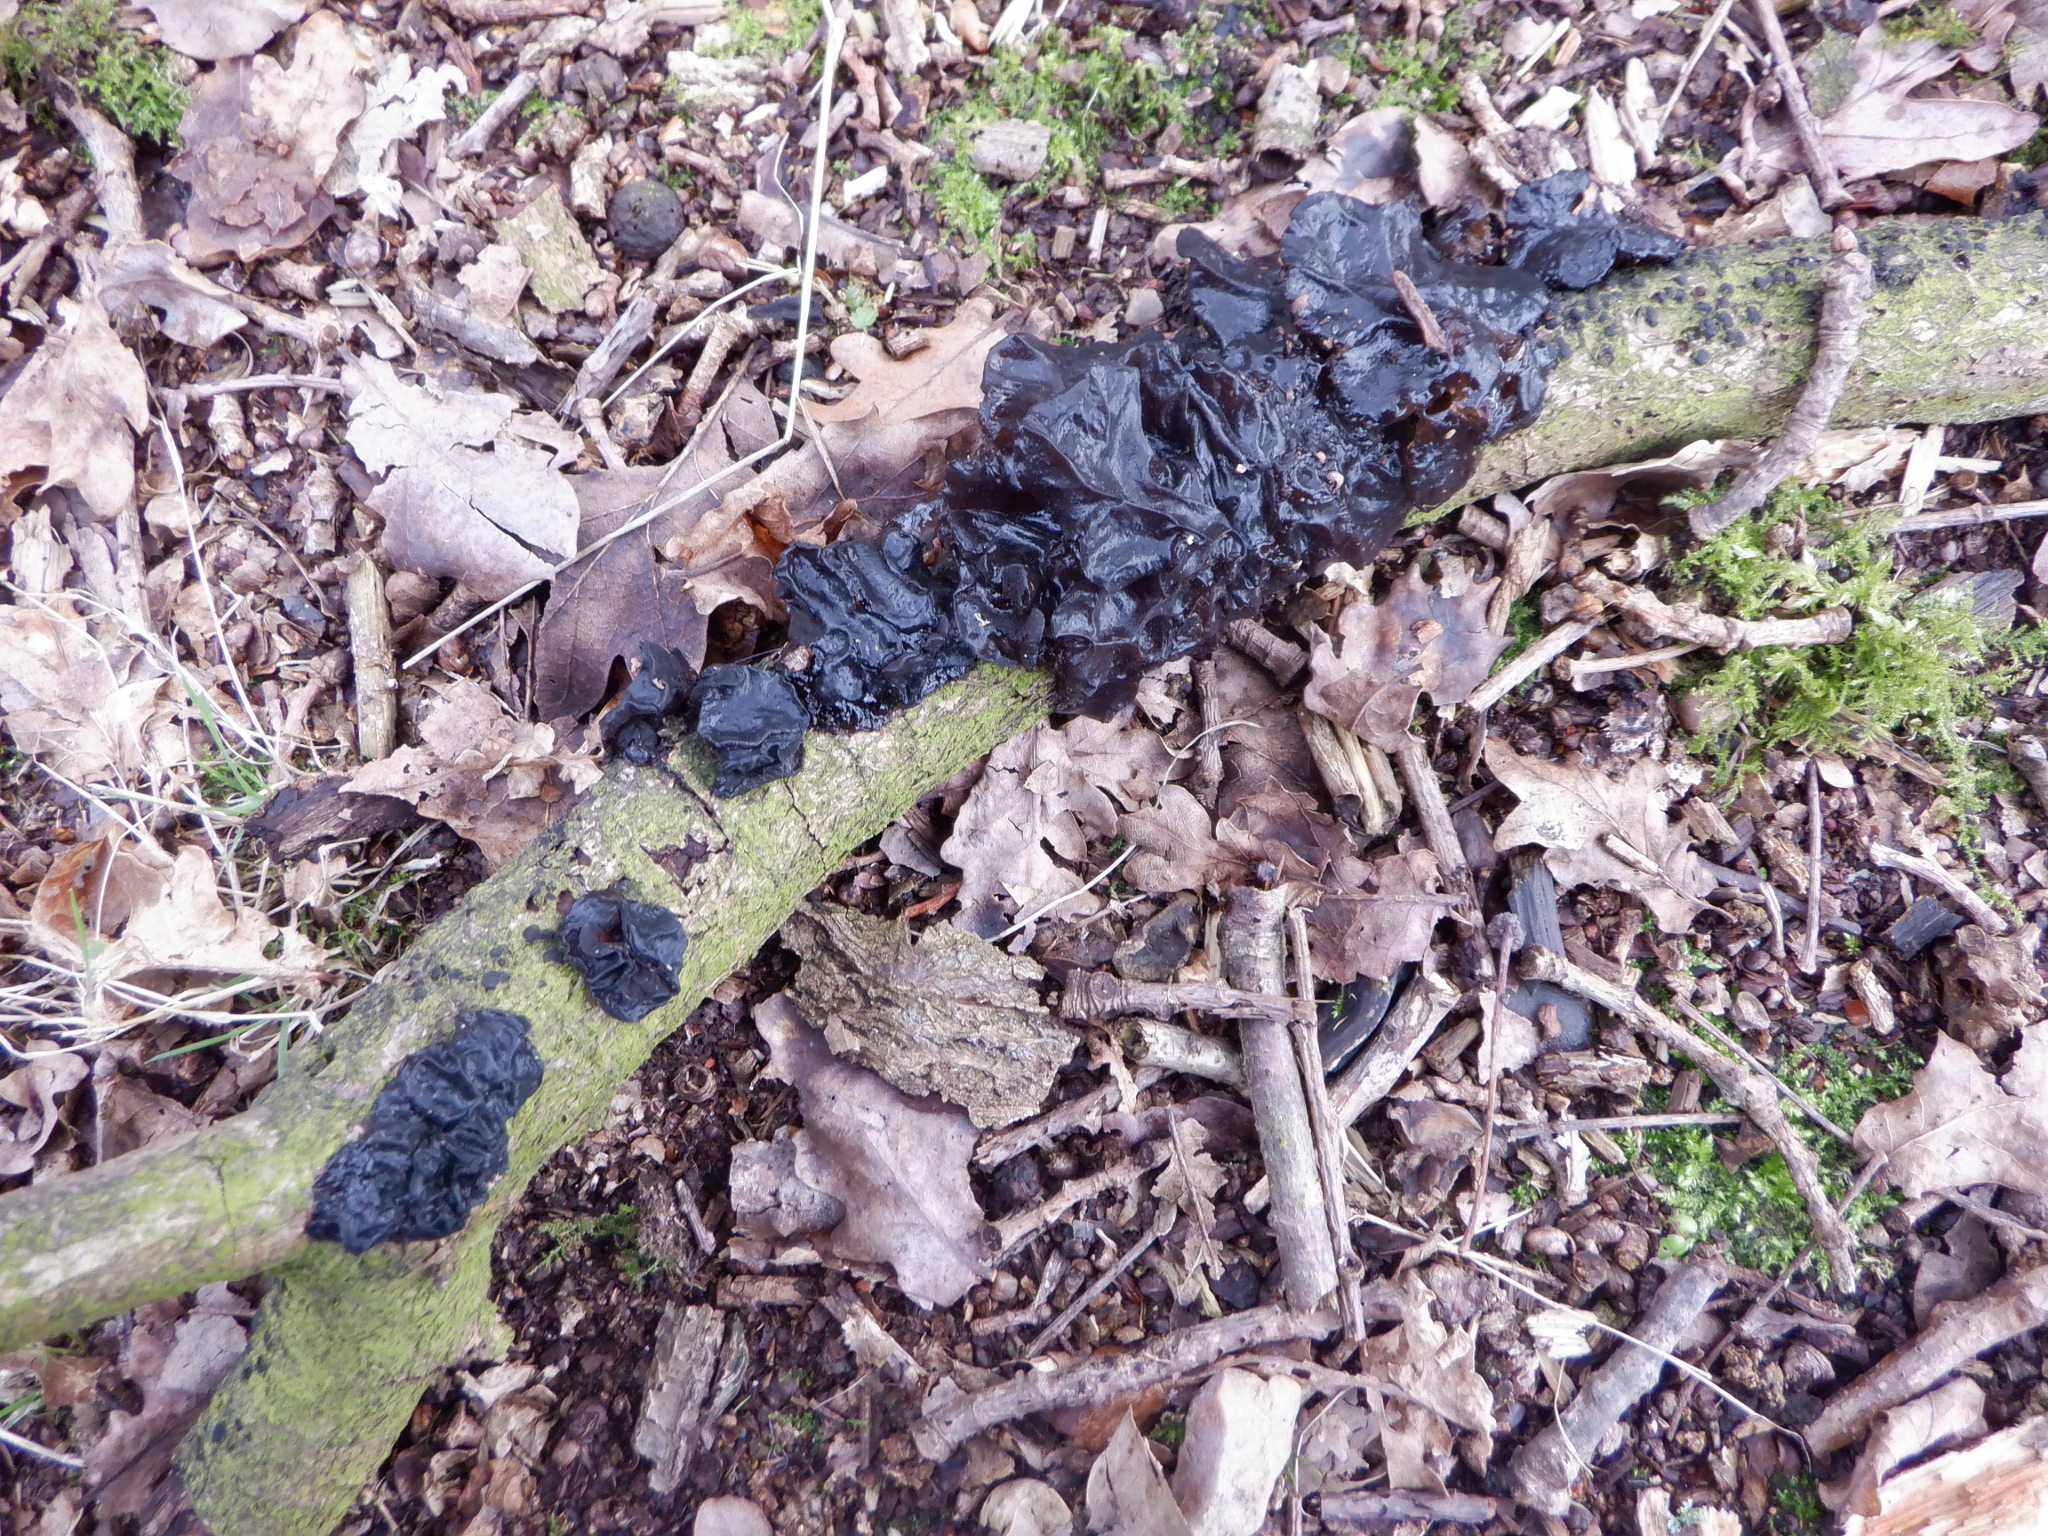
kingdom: Fungi
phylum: Basidiomycota
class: Agaricomycetes
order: Auriculariales
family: Auriculariaceae
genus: Exidia
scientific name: Exidia glandulosa
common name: Witches' butter
